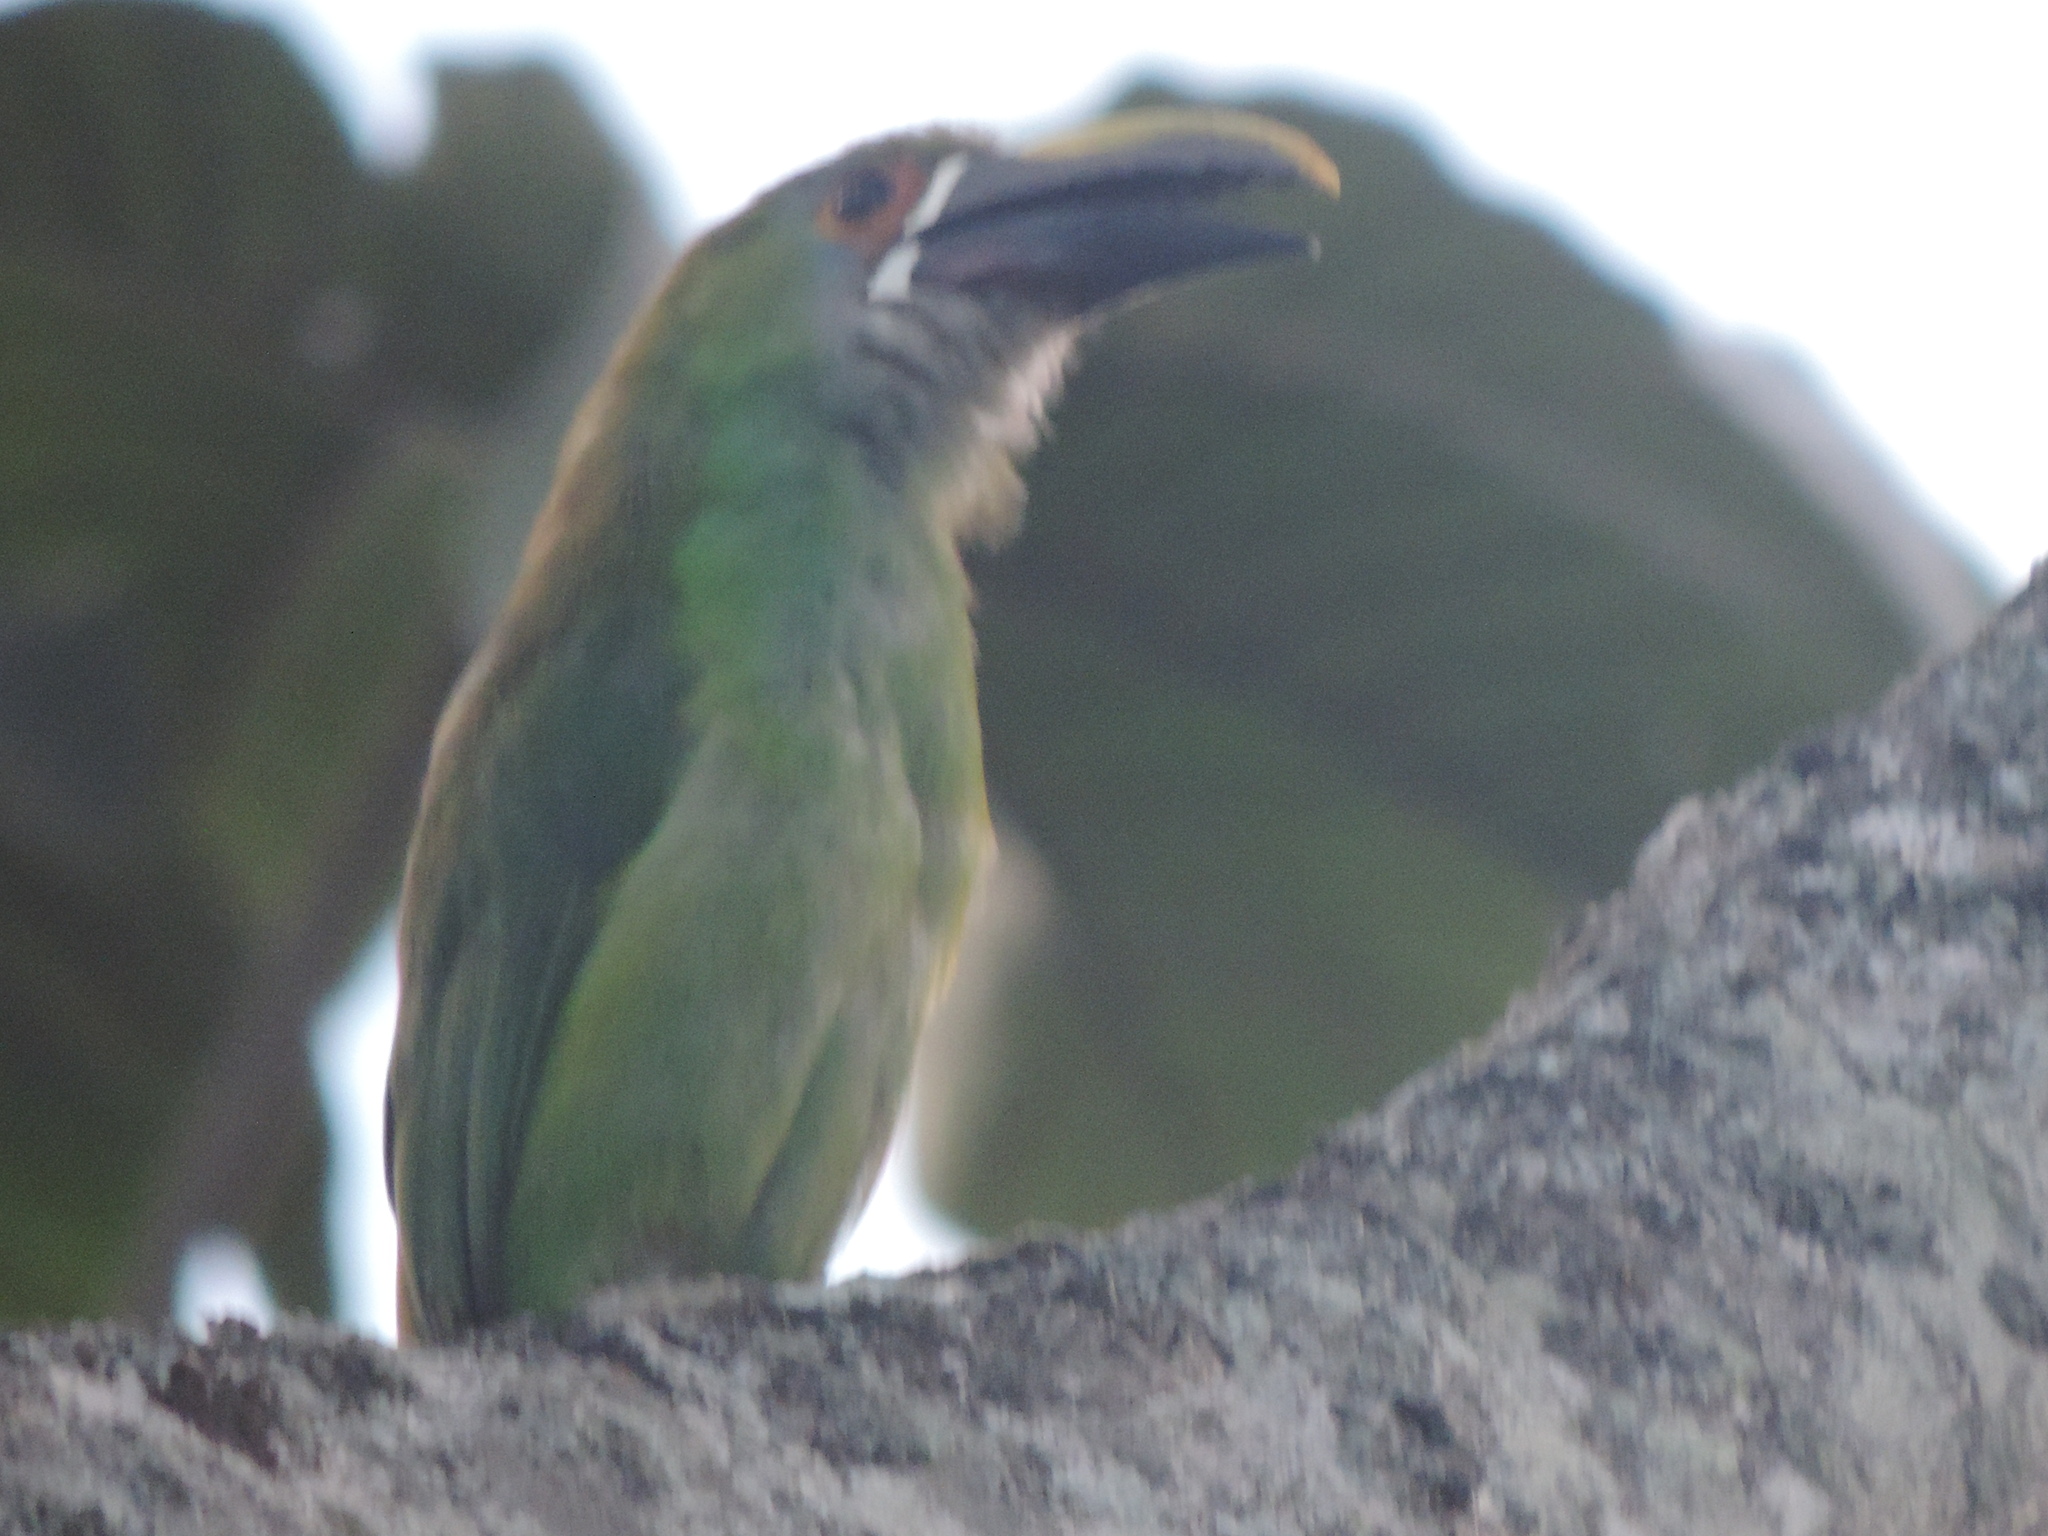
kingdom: Animalia
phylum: Chordata
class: Aves
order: Piciformes
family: Ramphastidae
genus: Aulacorhynchus
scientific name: Aulacorhynchus albivitta
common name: White-throated toucanet
